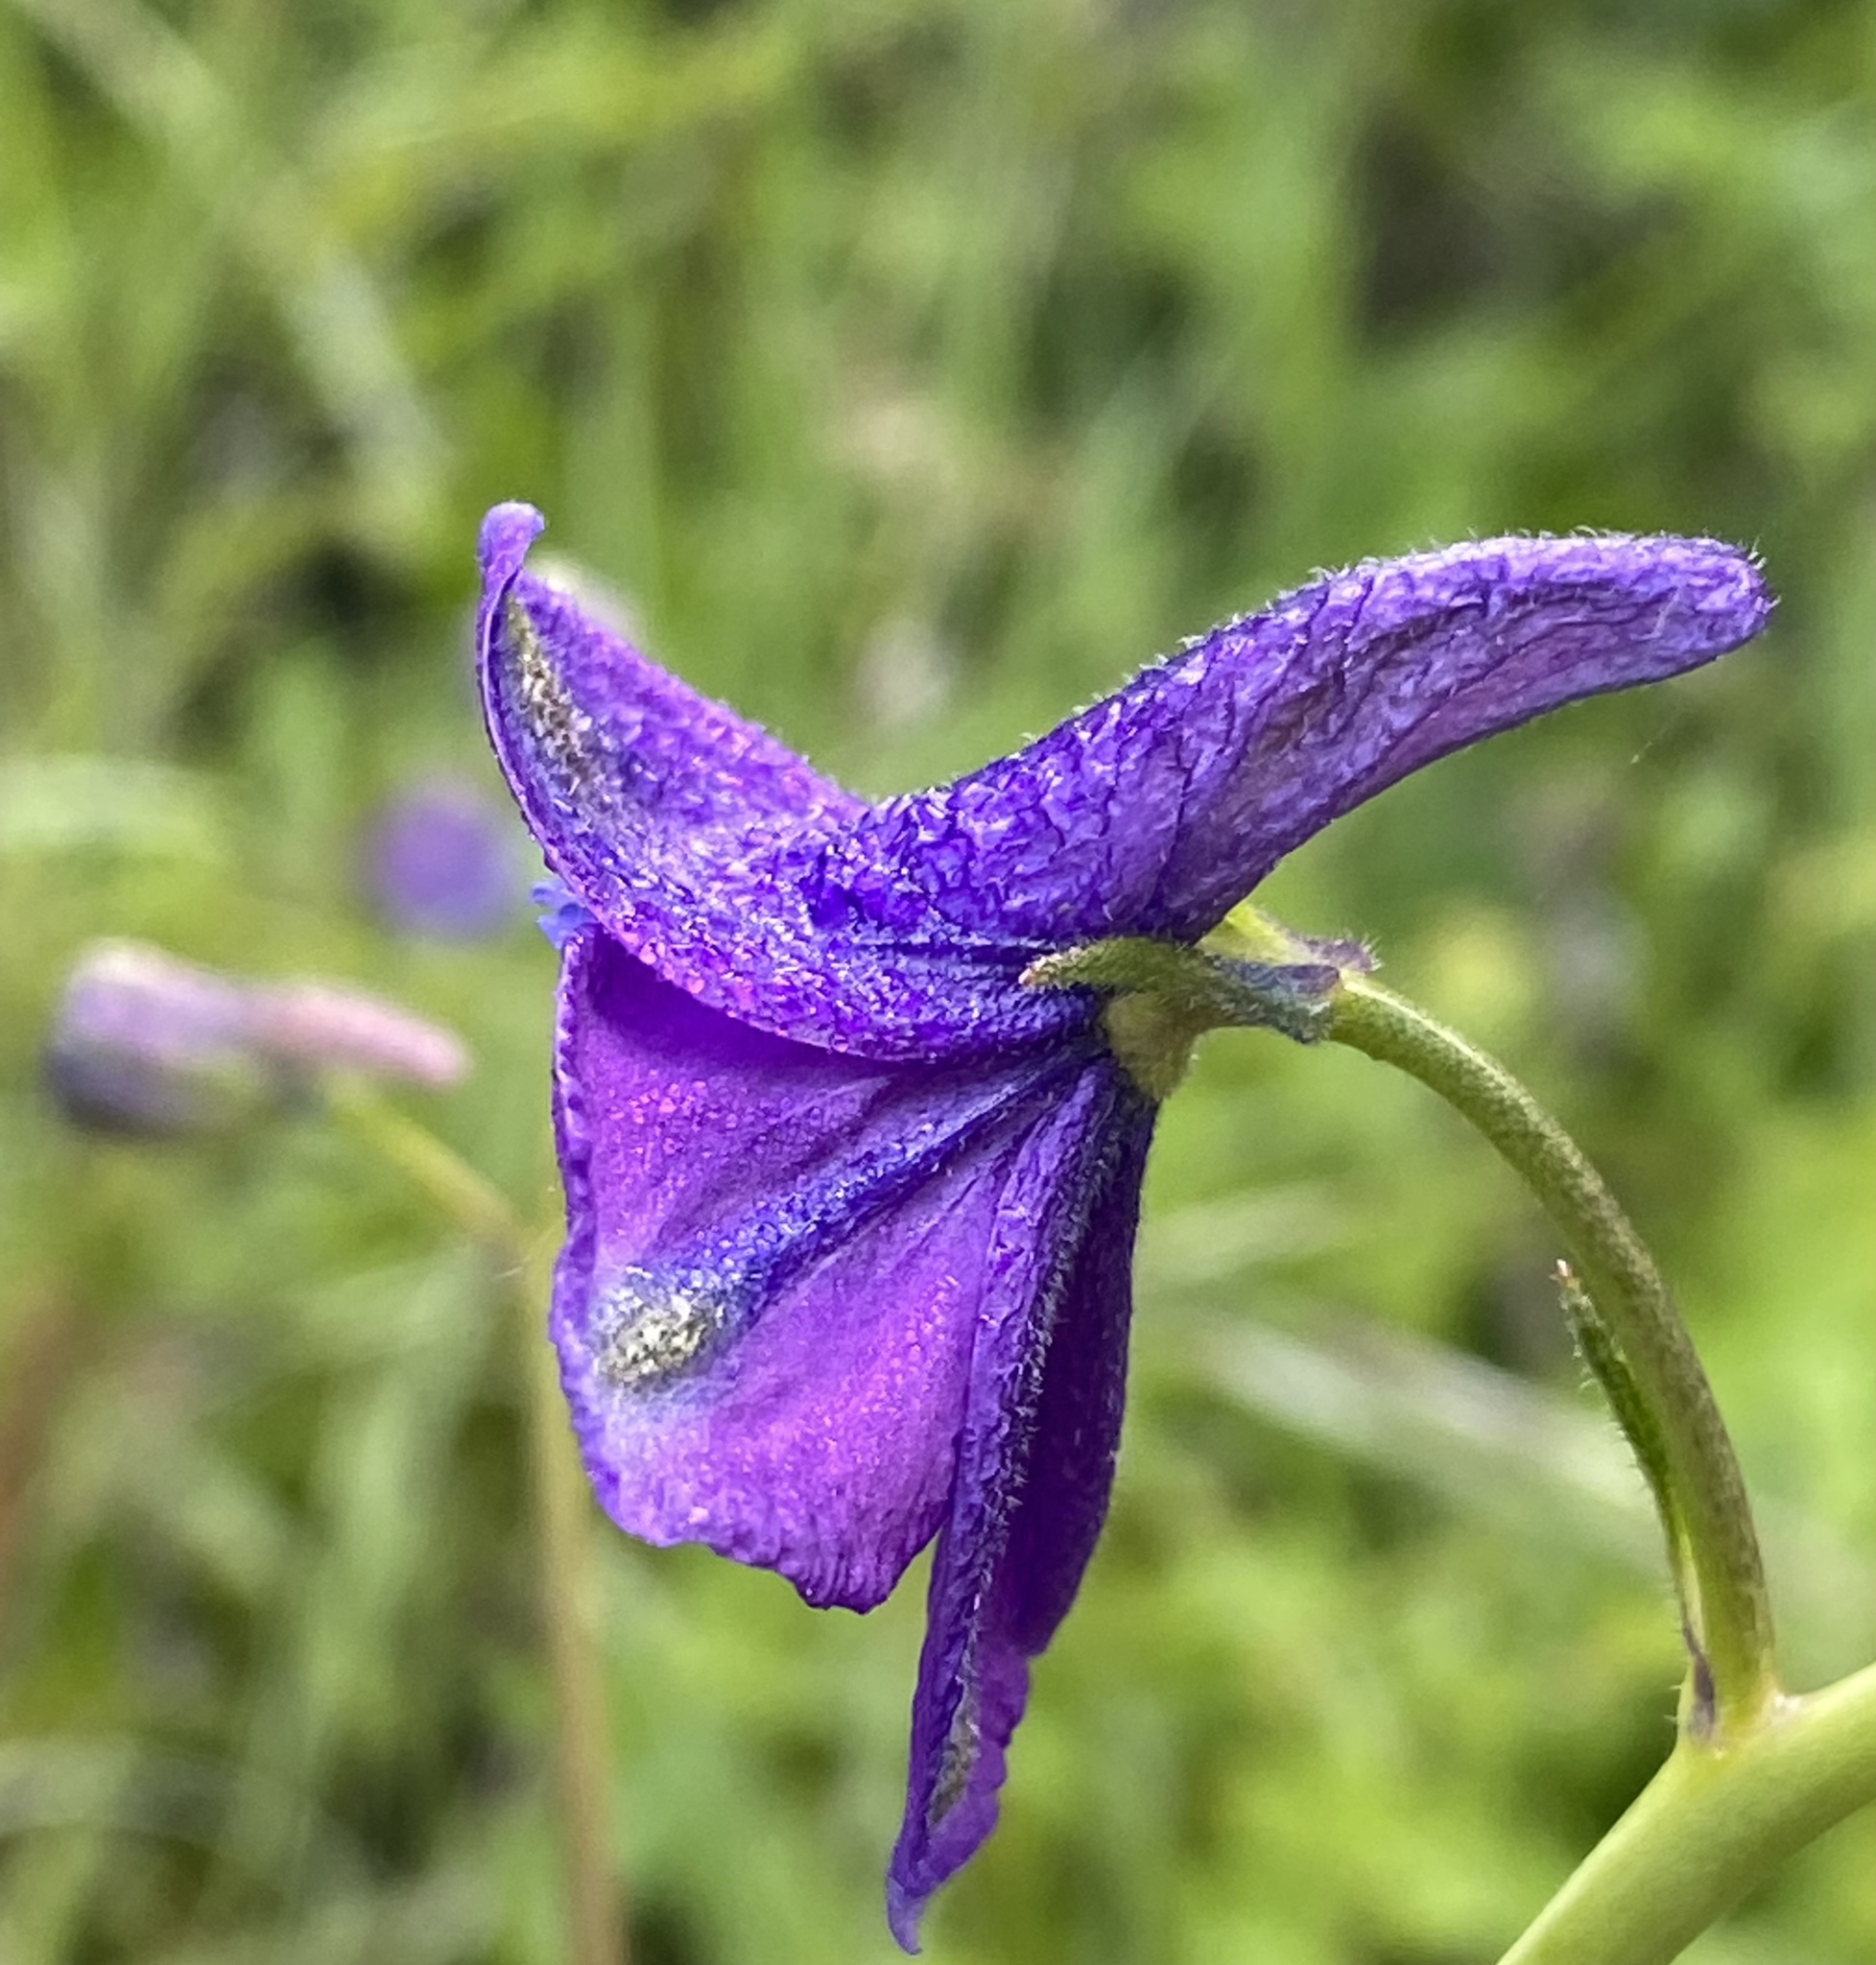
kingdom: Plantae
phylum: Tracheophyta
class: Magnoliopsida
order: Ranunculales
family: Ranunculaceae
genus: Delphinium
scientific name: Delphinium hutchinsoniae
